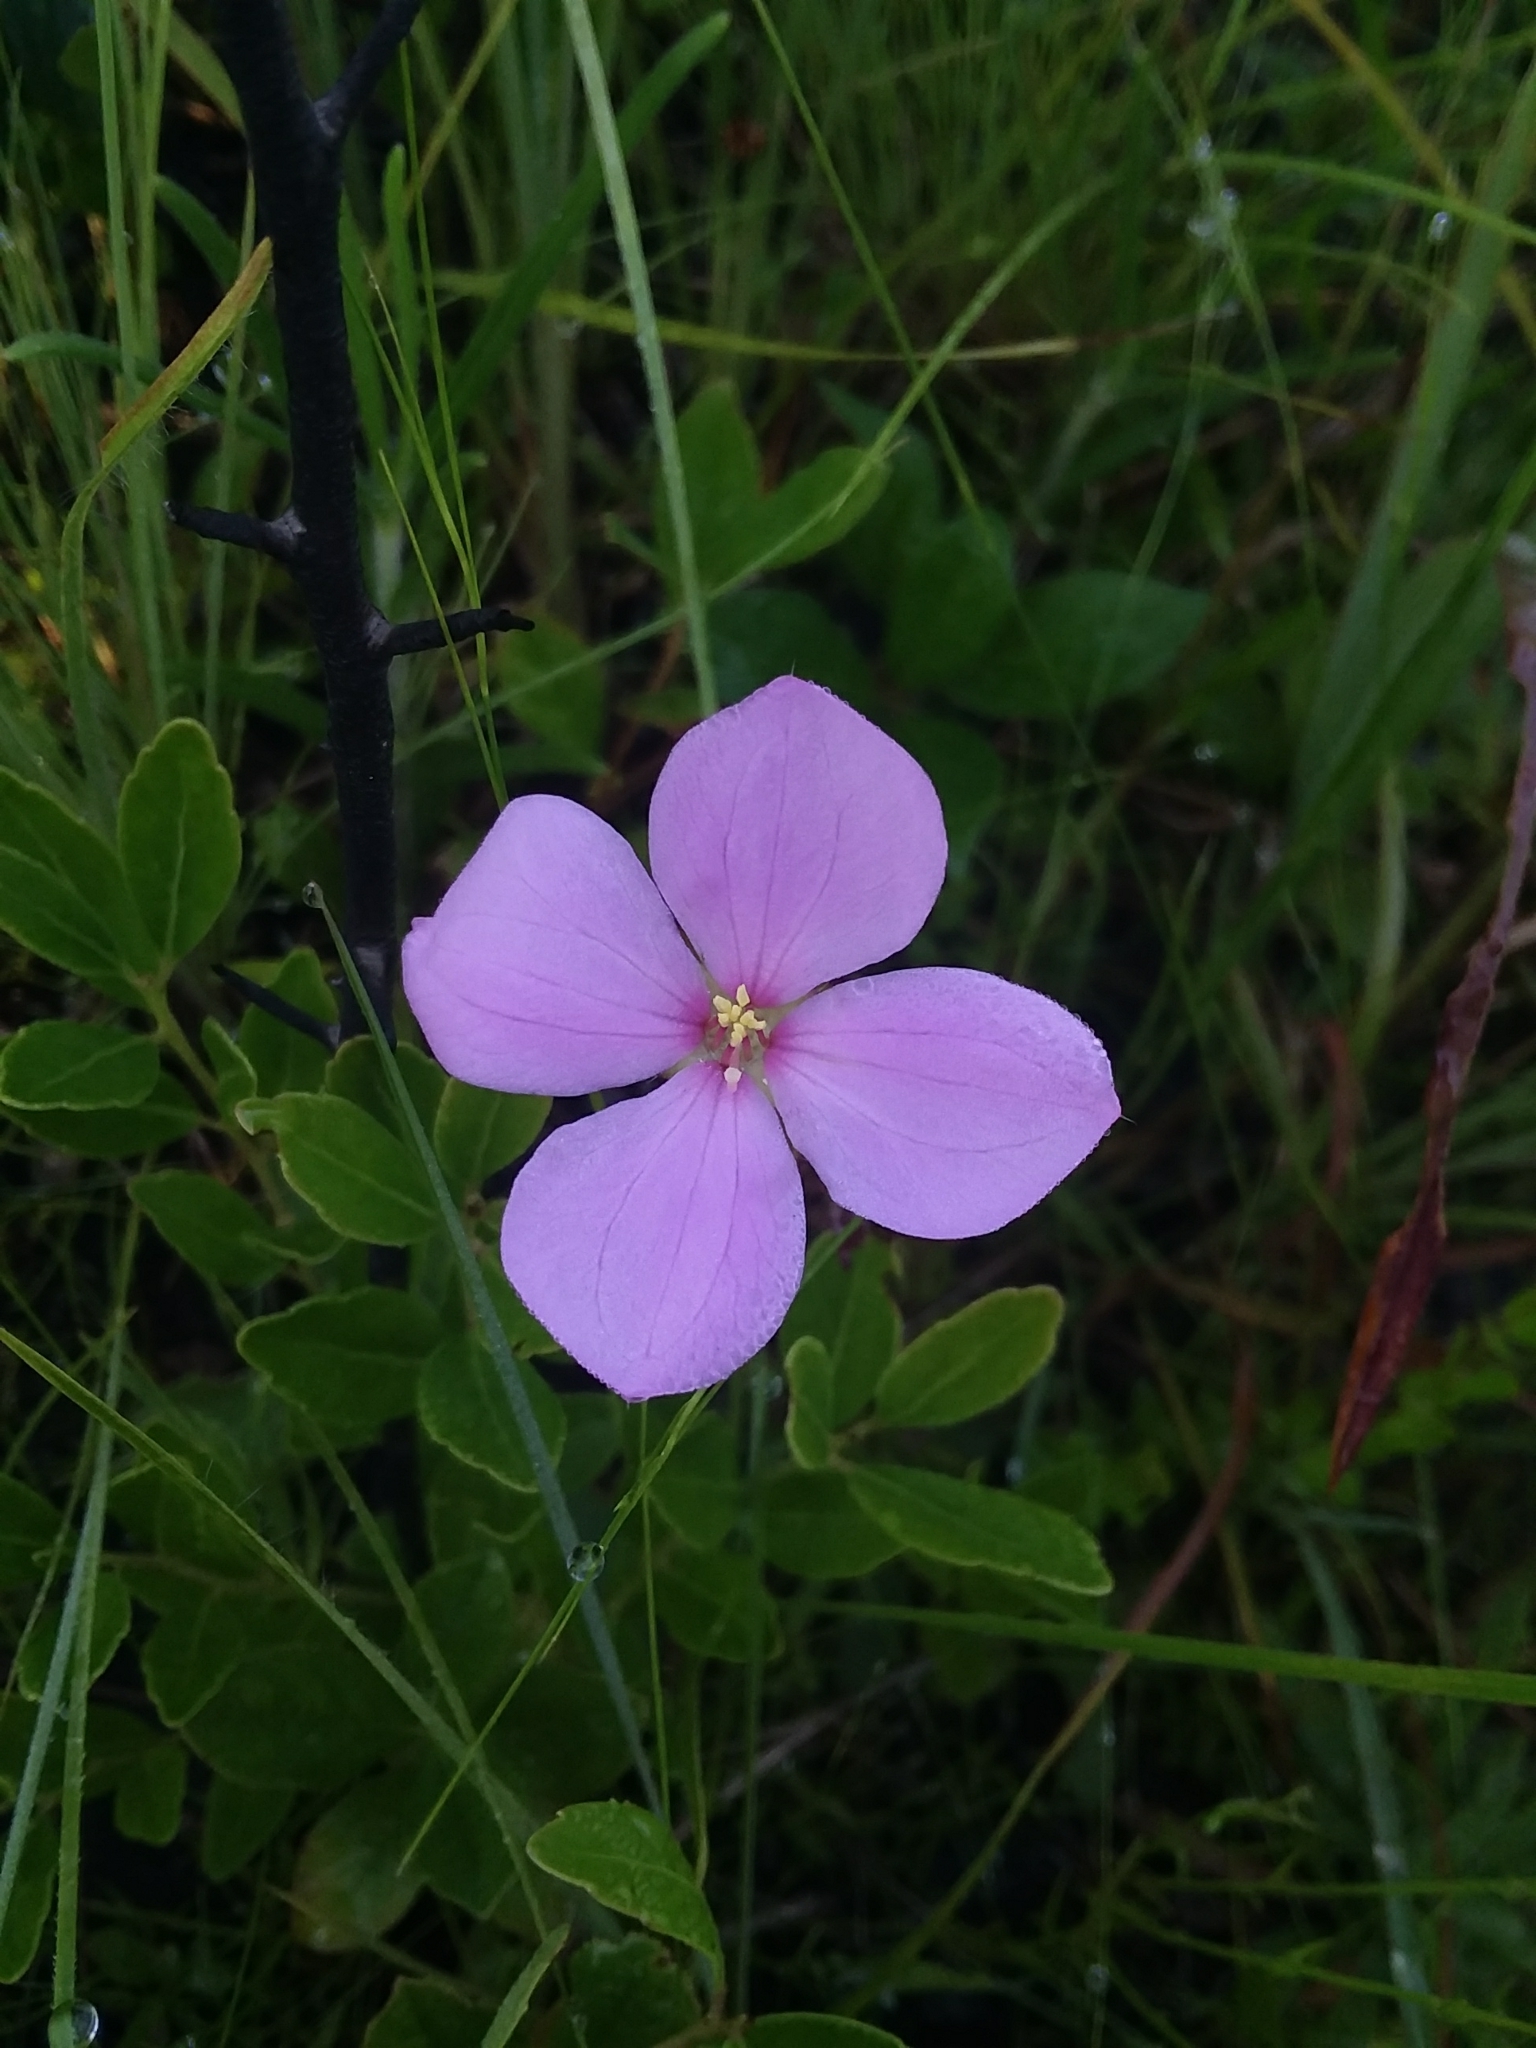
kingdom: Plantae
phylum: Tracheophyta
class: Magnoliopsida
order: Myrtales
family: Melastomataceae
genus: Rhexia
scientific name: Rhexia petiolata
